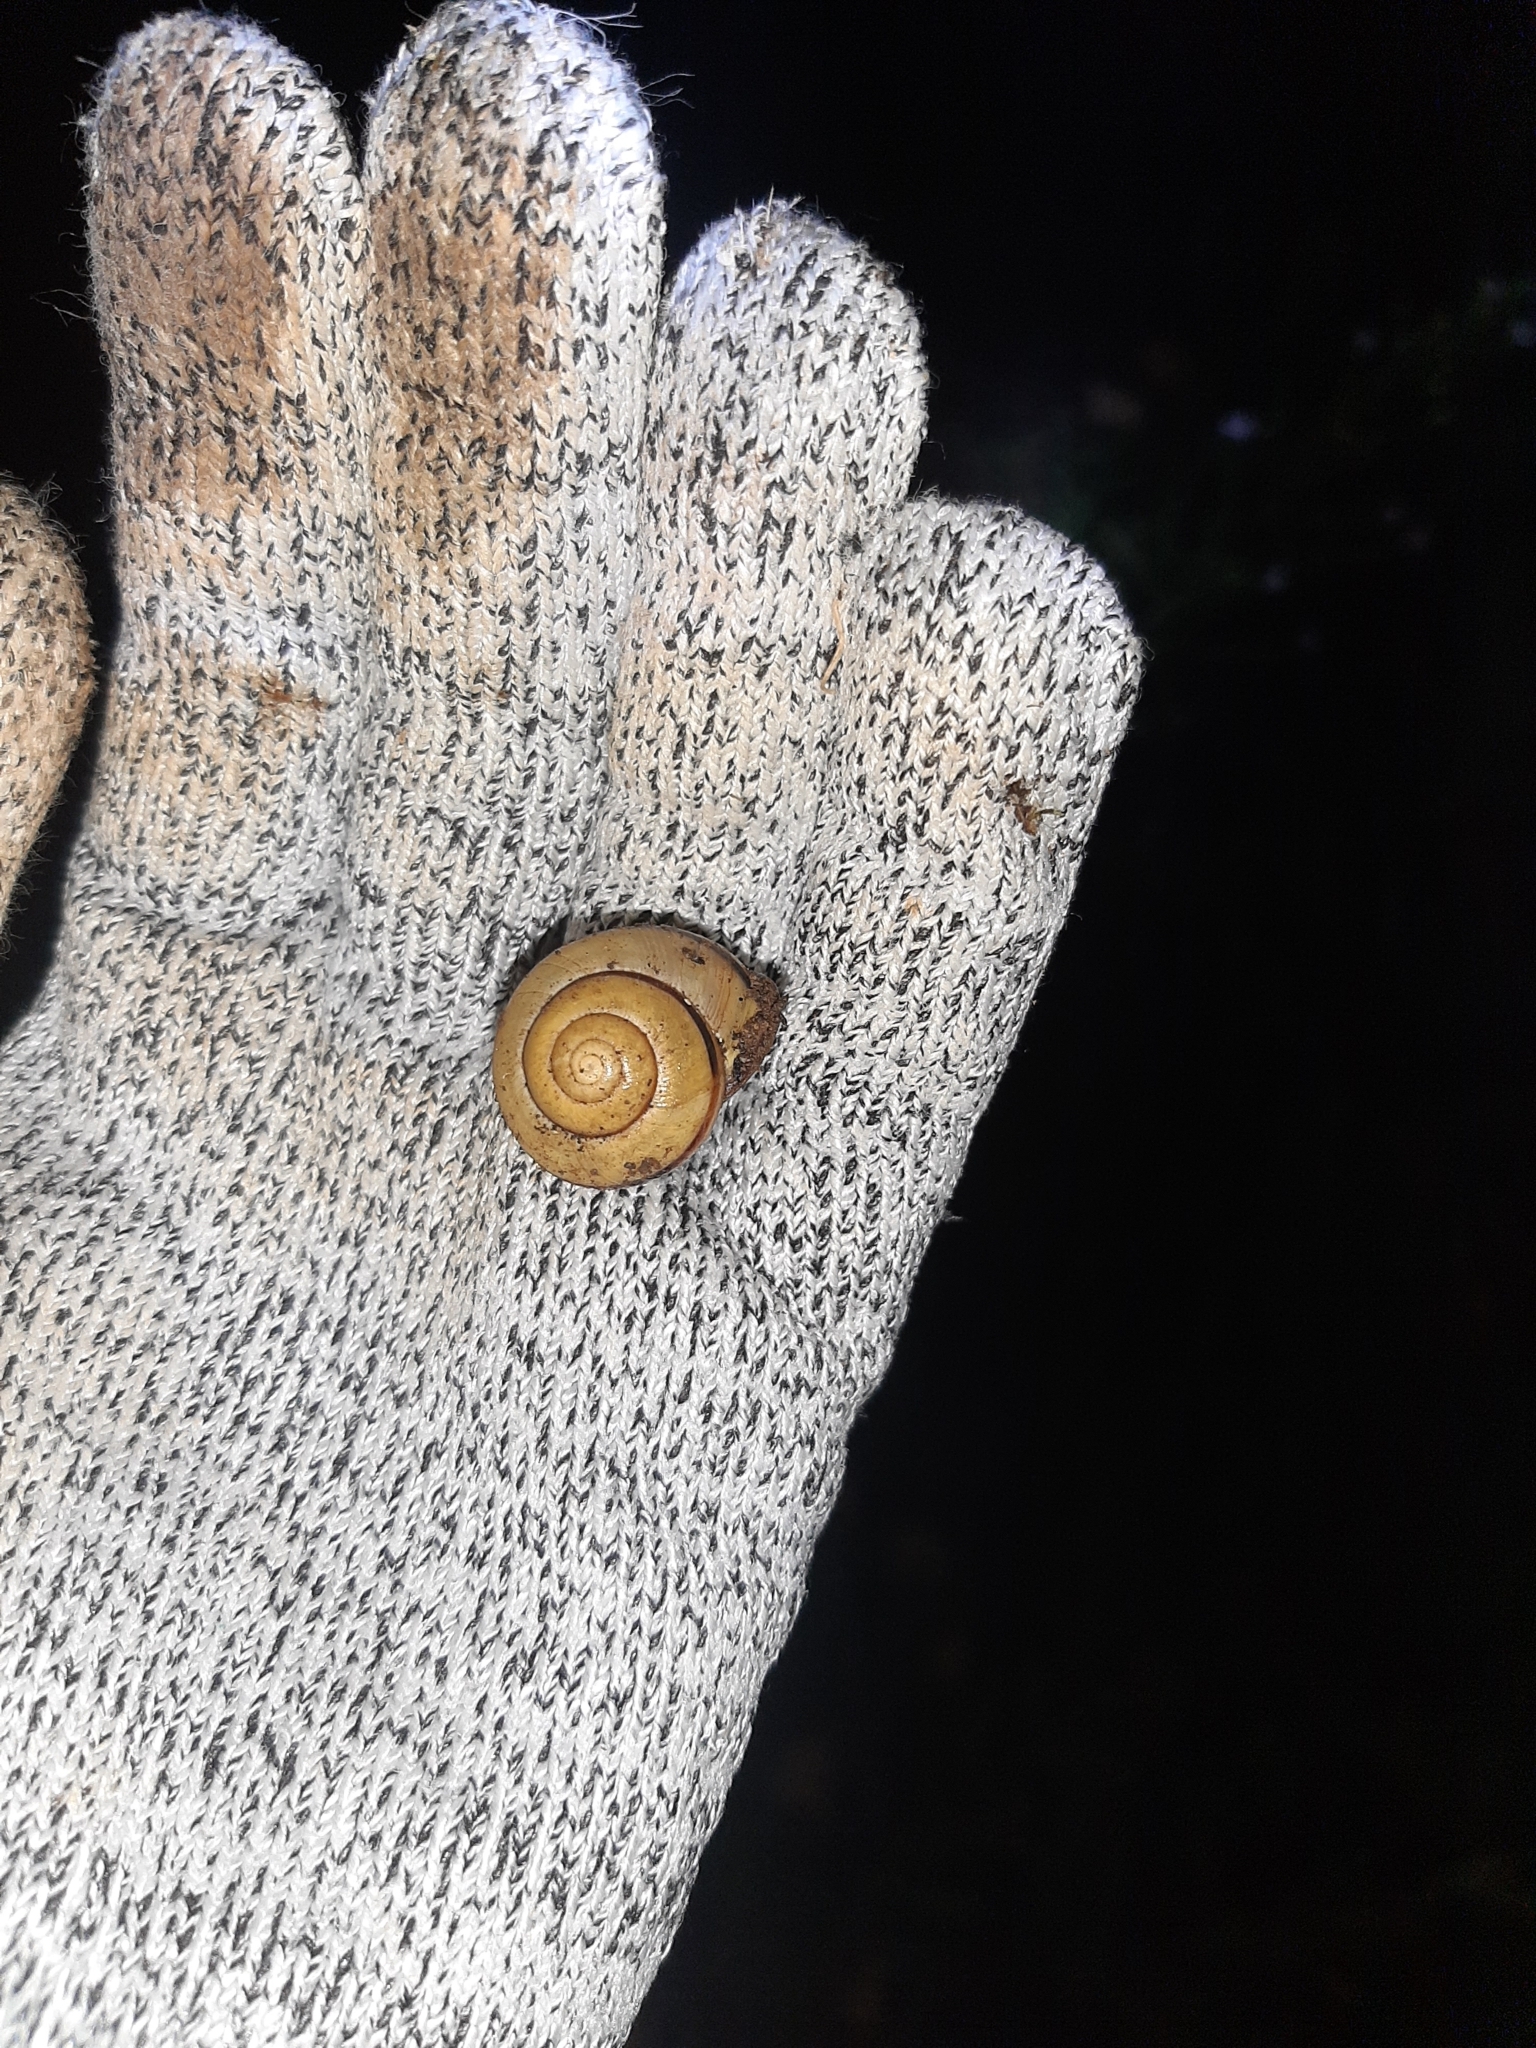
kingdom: Animalia
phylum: Mollusca
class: Gastropoda
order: Stylommatophora
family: Helicidae
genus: Cepaea
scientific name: Cepaea nemoralis
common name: Grovesnail
